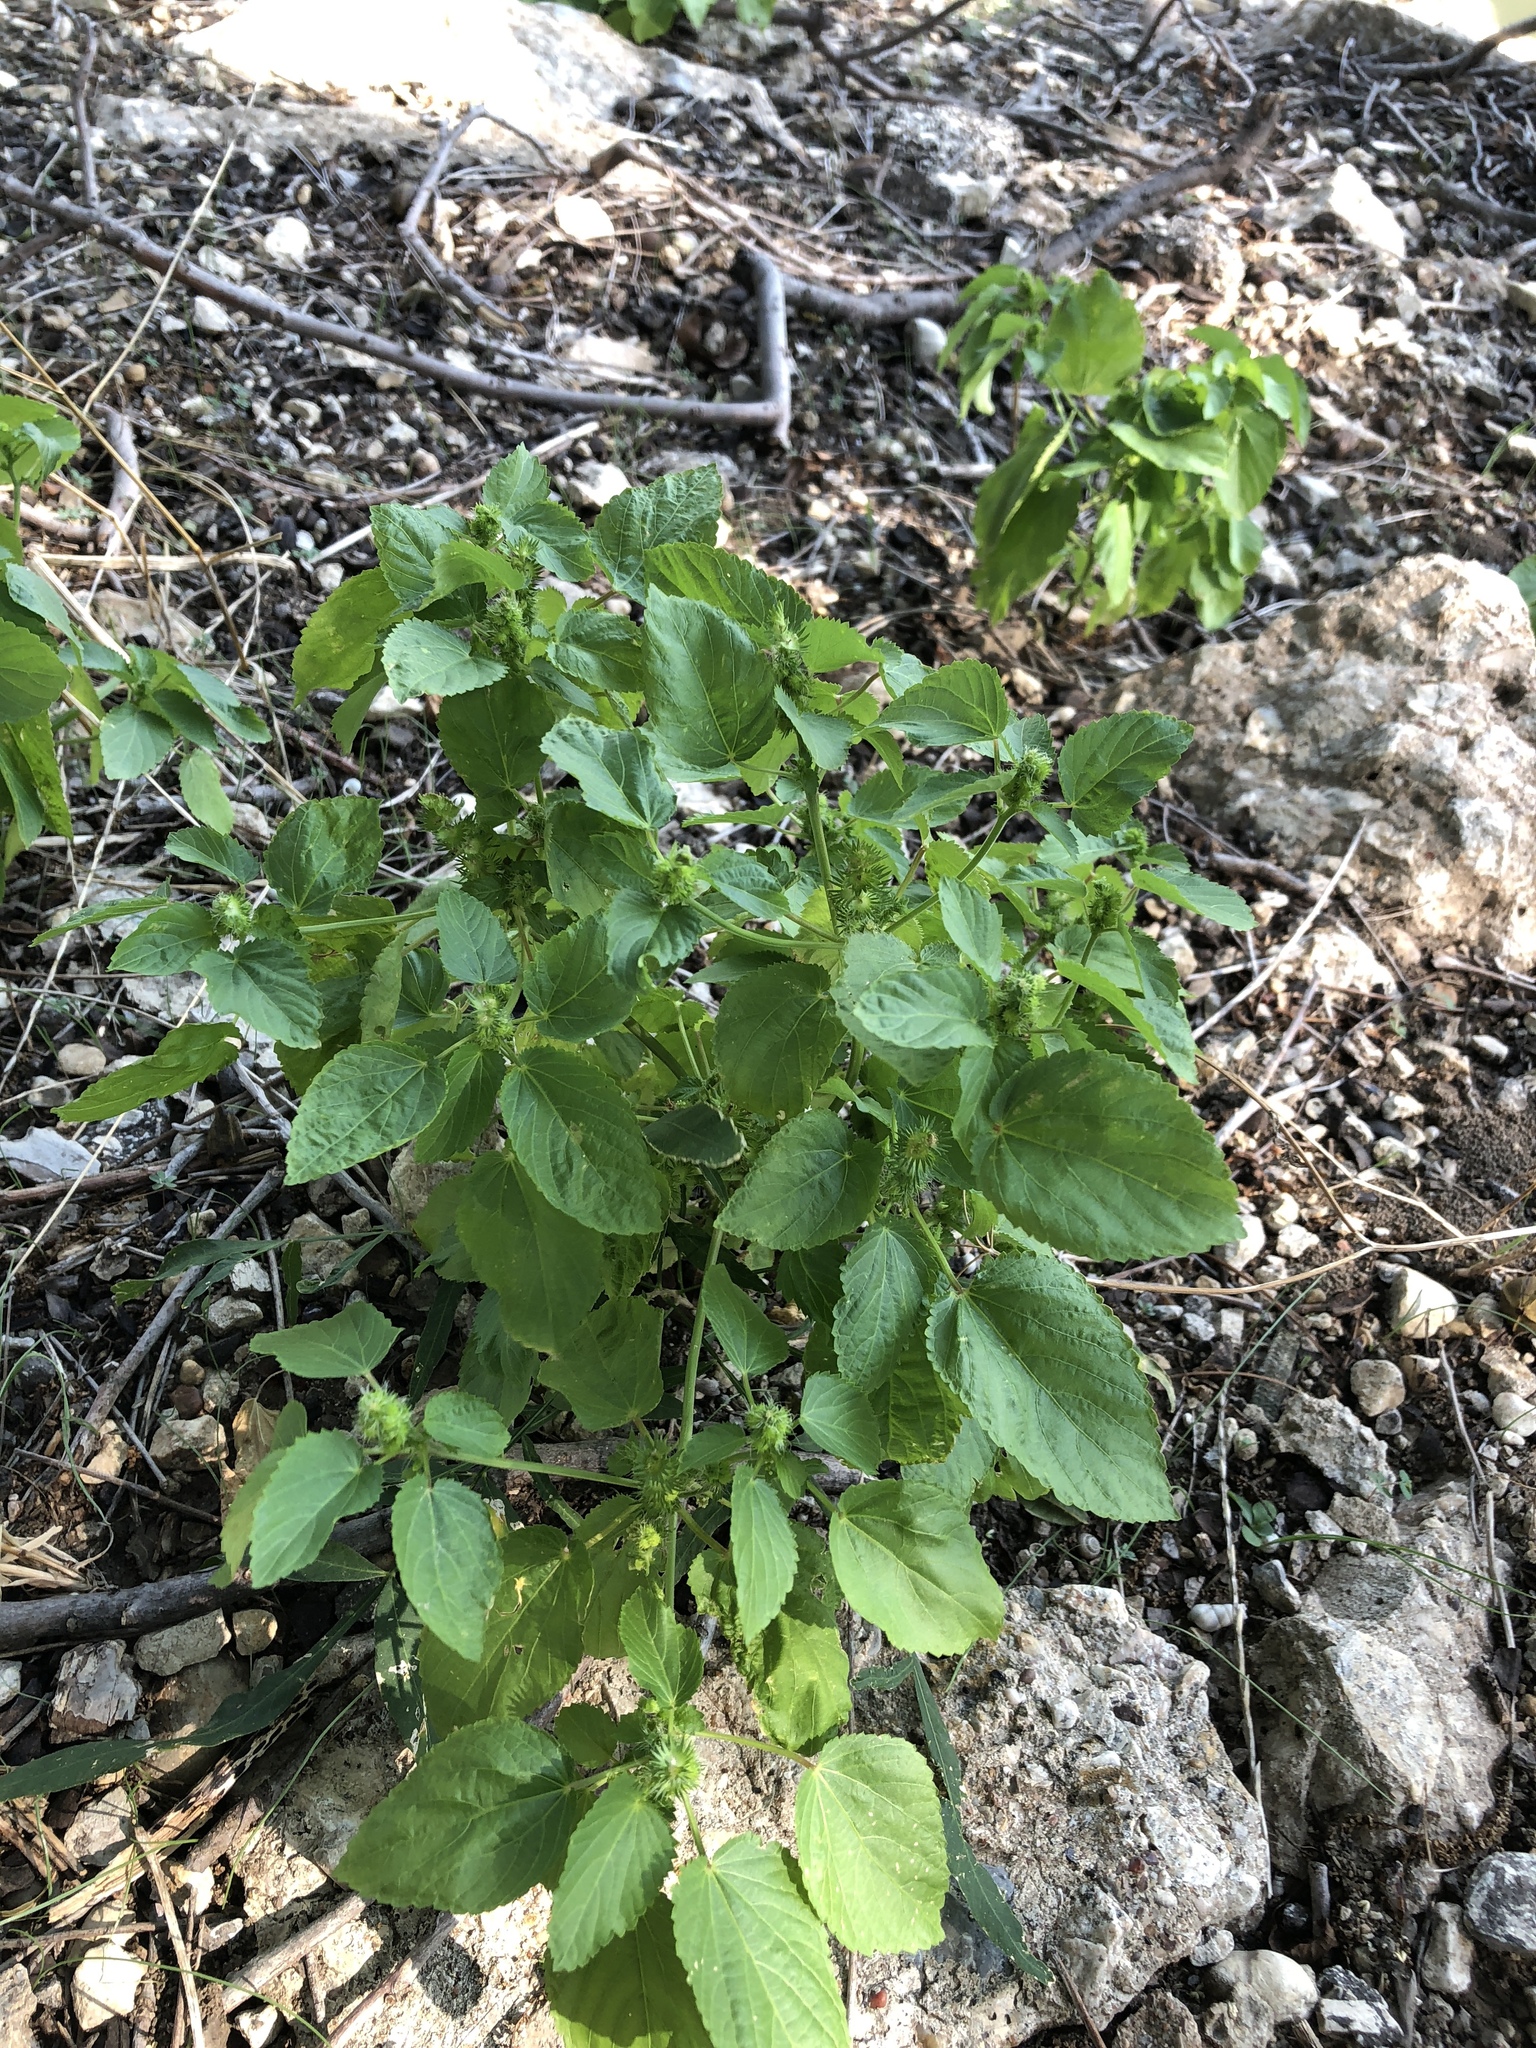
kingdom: Plantae
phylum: Tracheophyta
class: Magnoliopsida
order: Malpighiales
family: Euphorbiaceae
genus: Acalypha
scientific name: Acalypha ostryifolia
